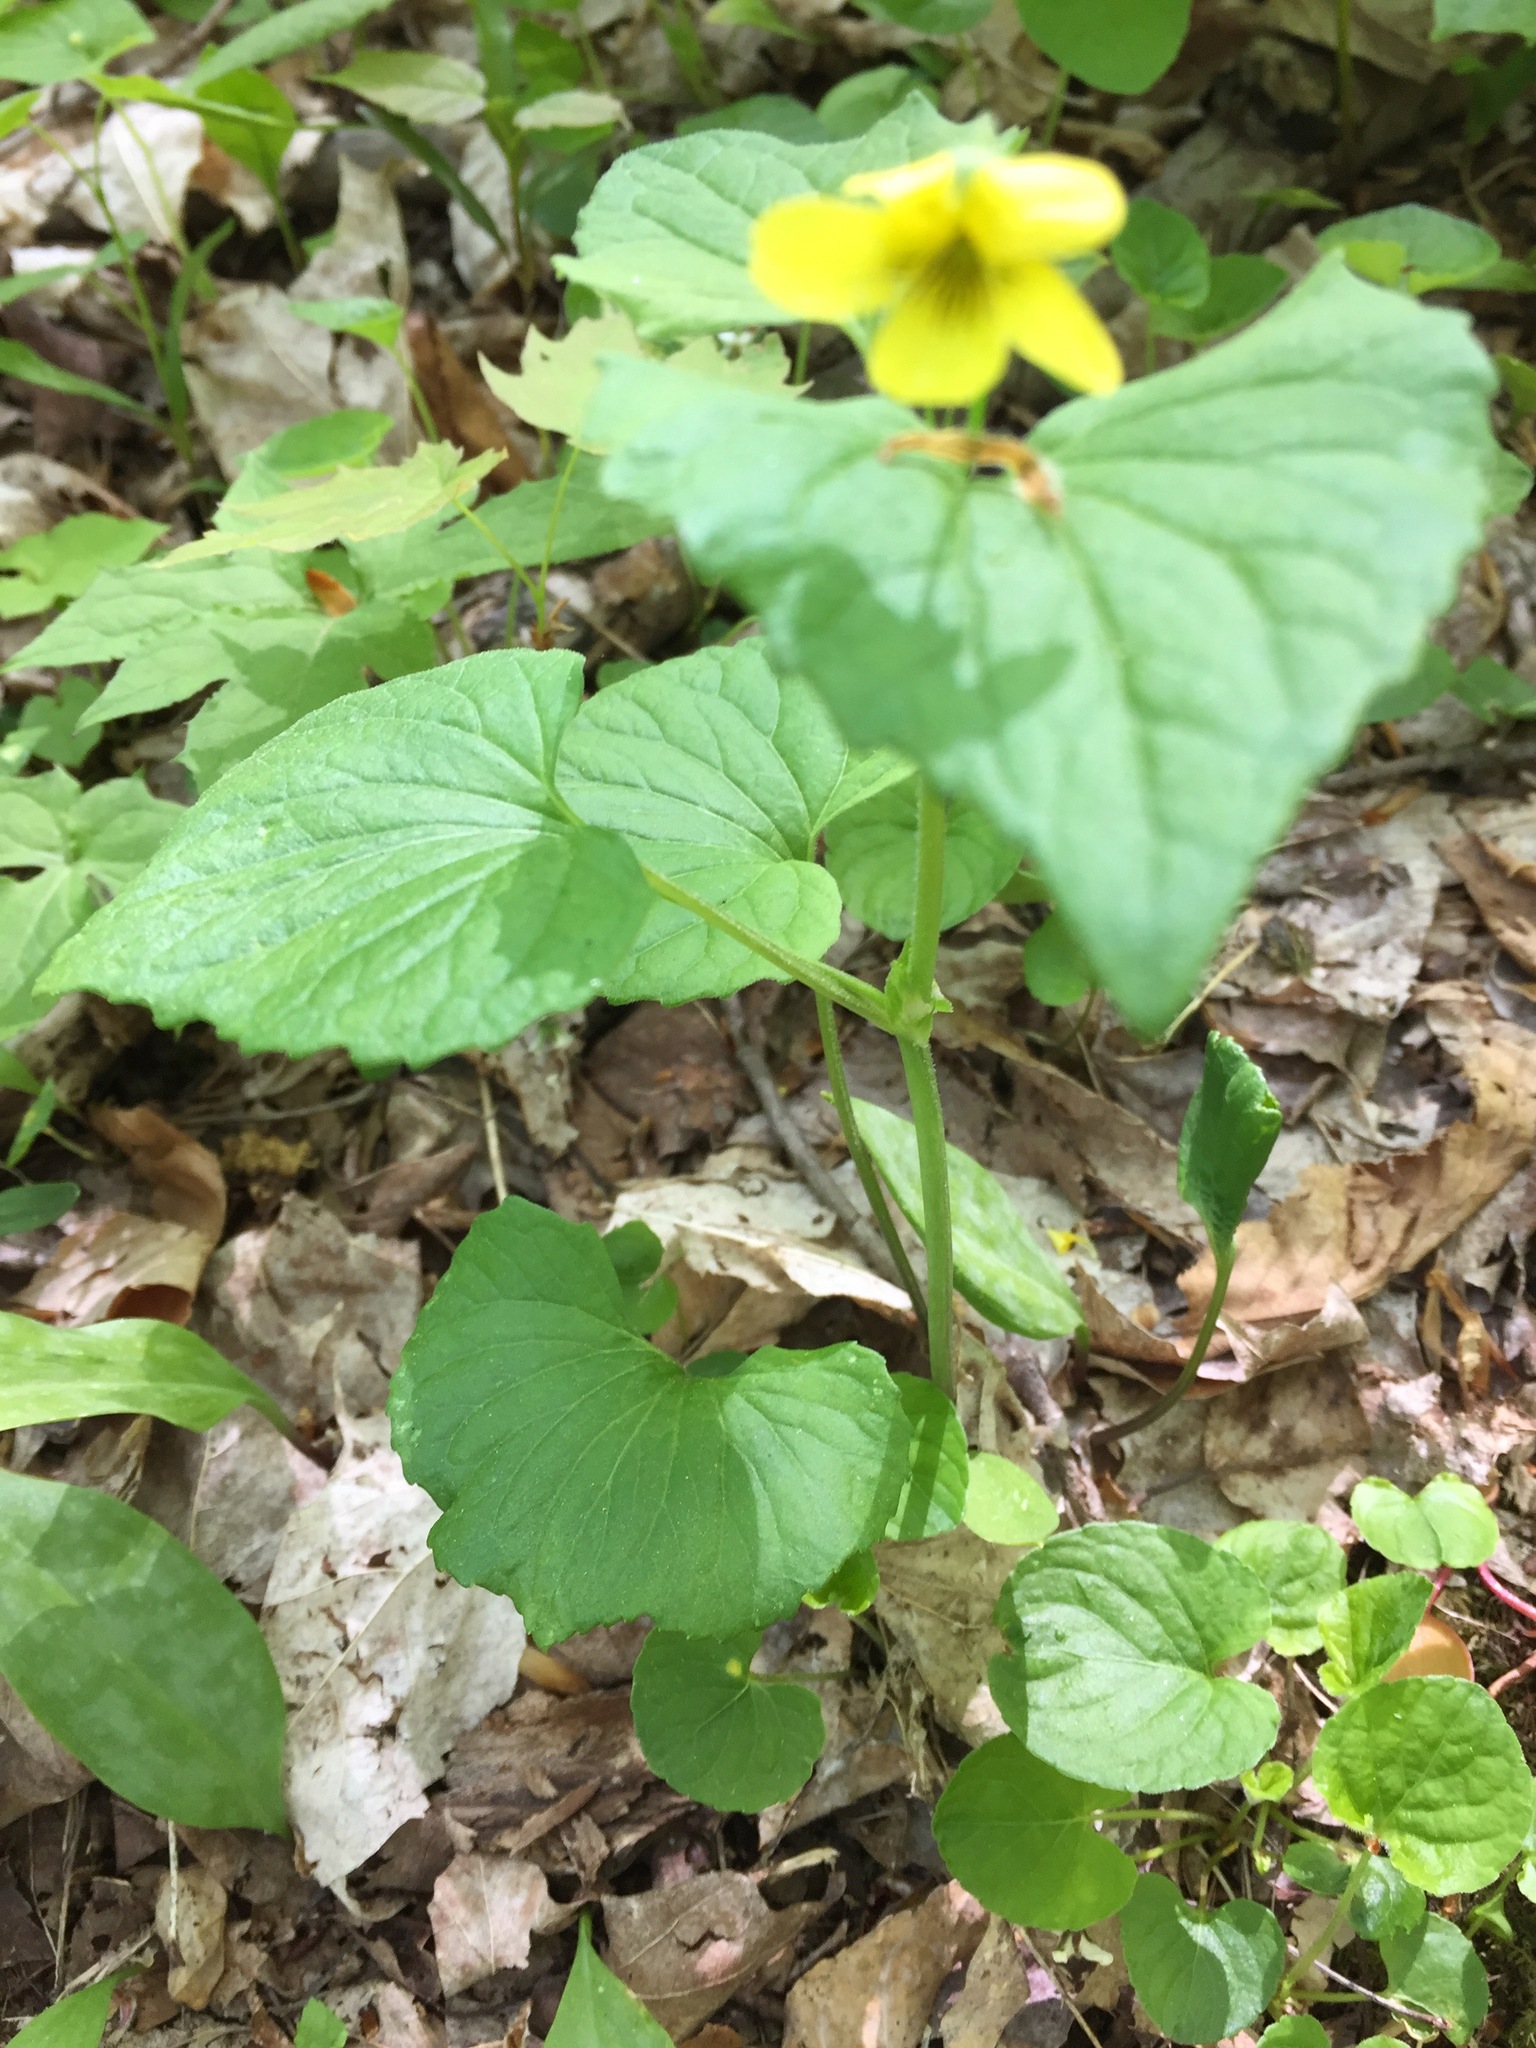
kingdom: Plantae
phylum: Tracheophyta
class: Magnoliopsida
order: Malpighiales
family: Violaceae
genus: Viola
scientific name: Viola eriocarpa
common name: Smooth yellow violet
